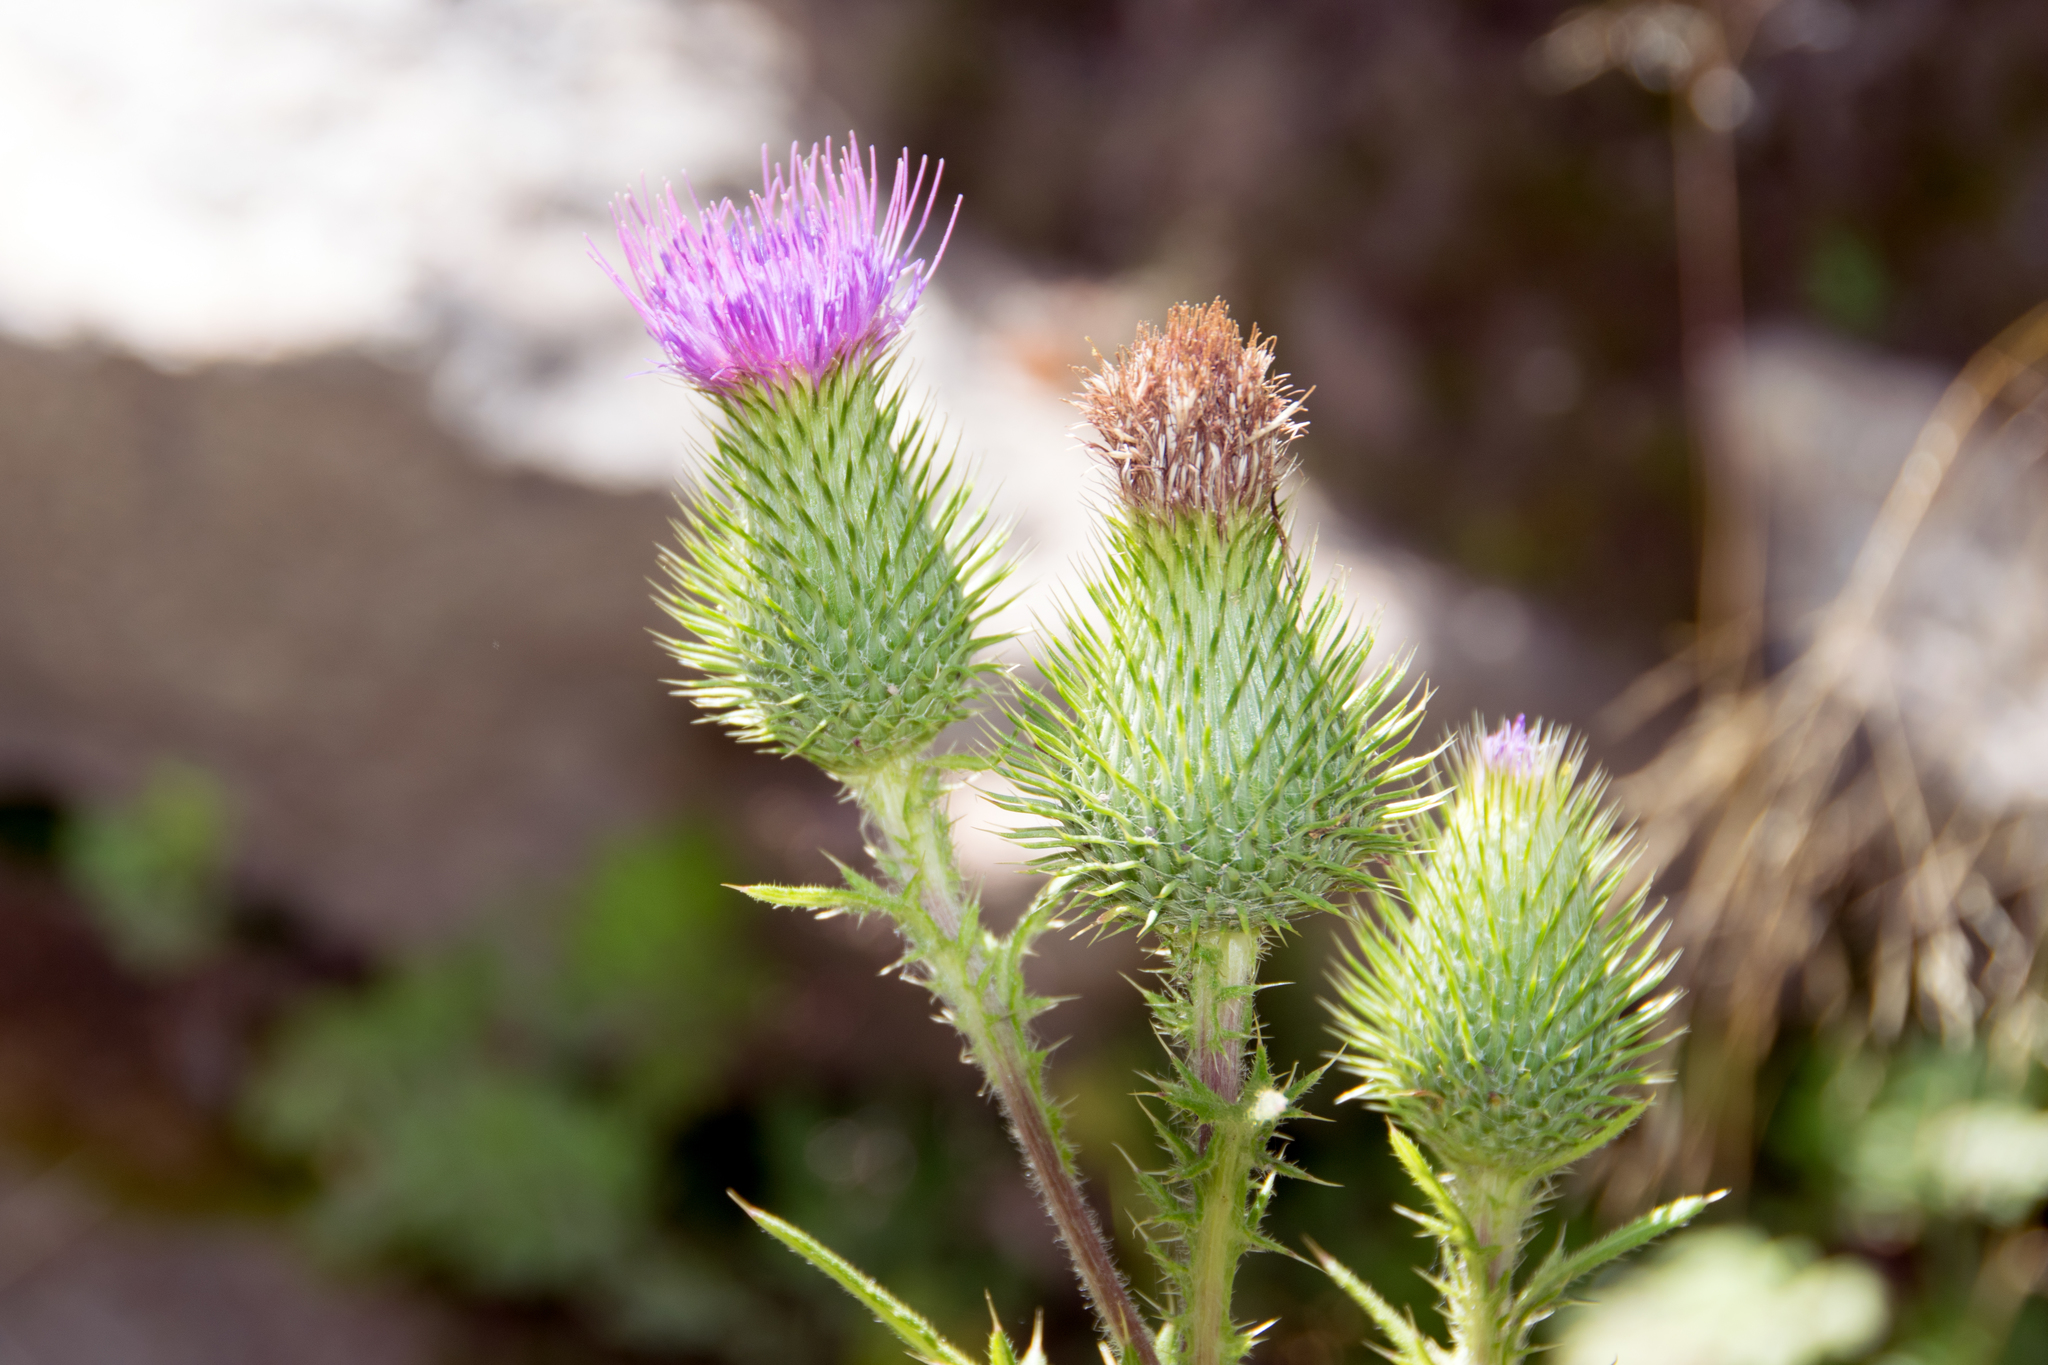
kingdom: Plantae
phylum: Tracheophyta
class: Magnoliopsida
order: Asterales
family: Asteraceae
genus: Cirsium
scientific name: Cirsium vulgare
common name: Bull thistle
